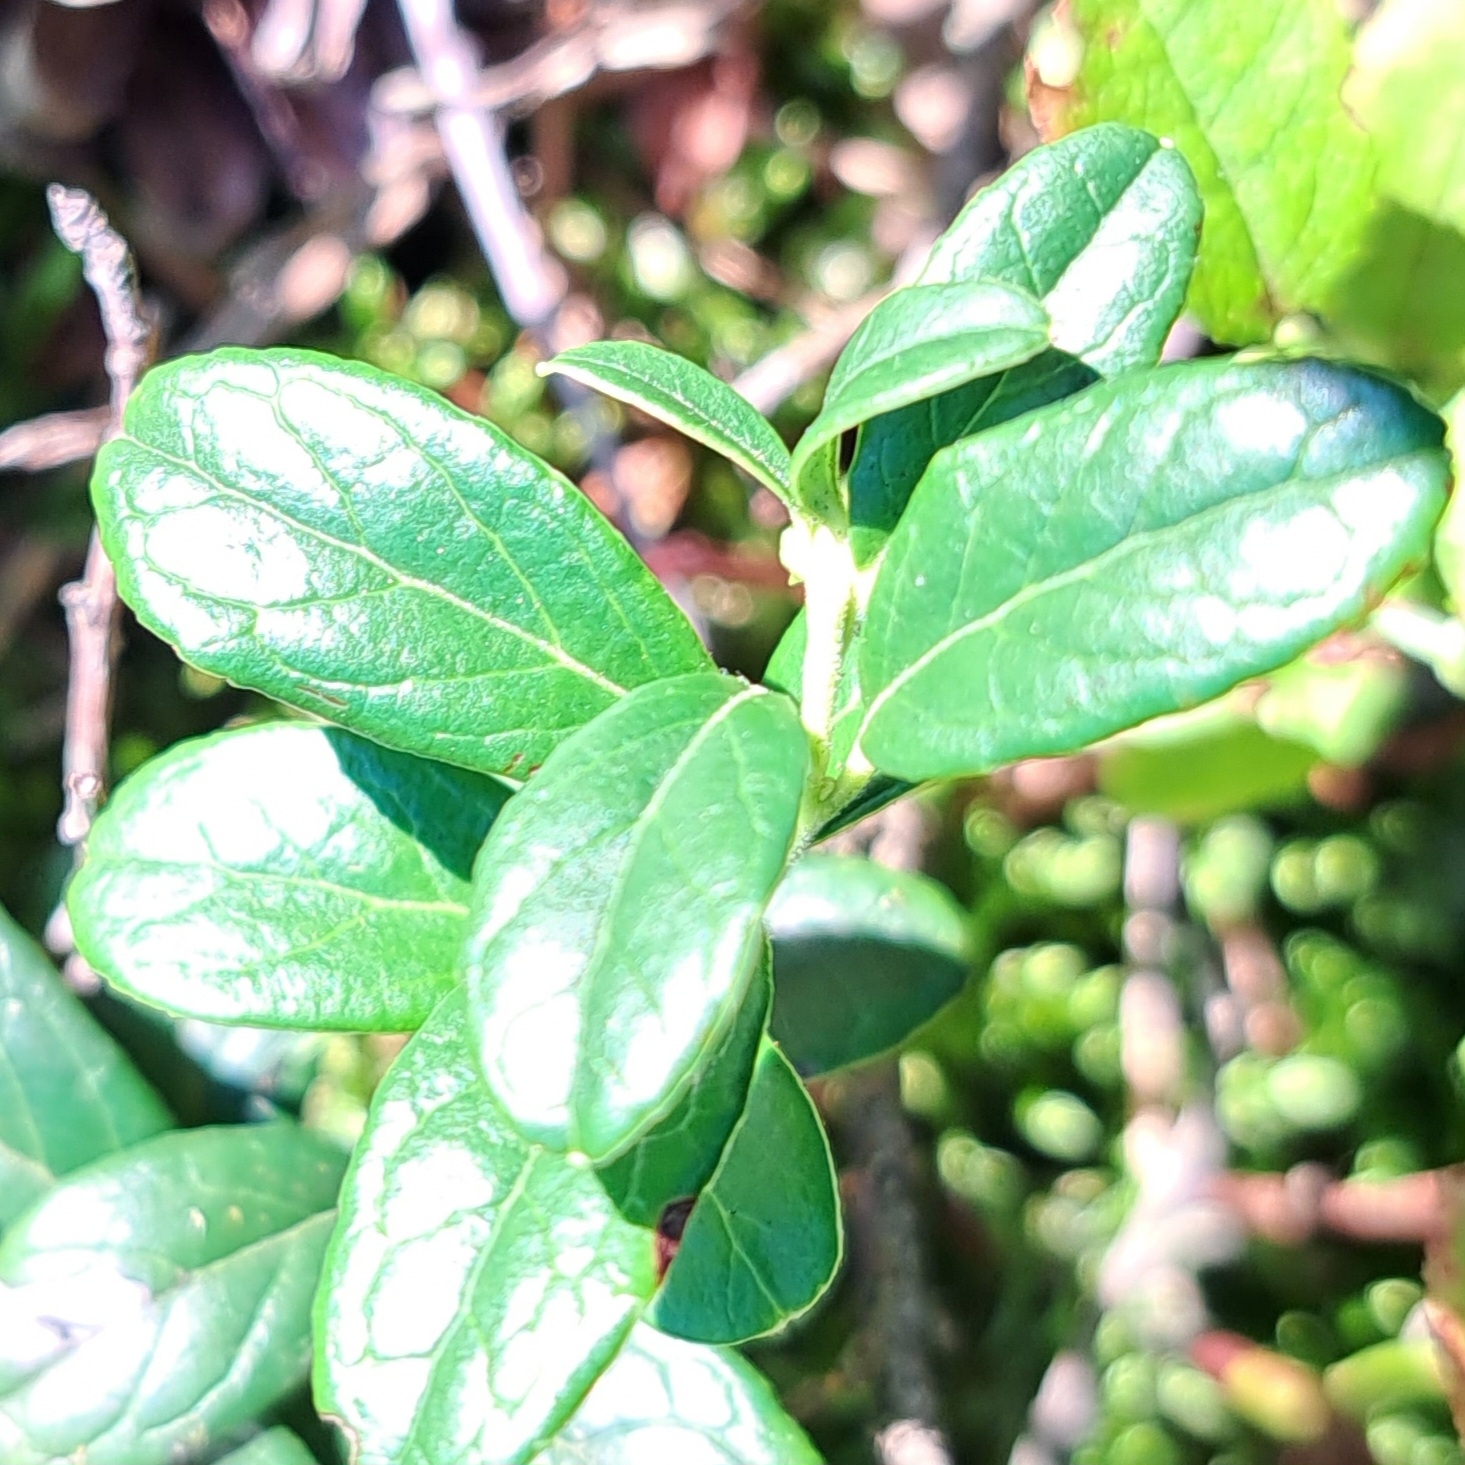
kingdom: Plantae
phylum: Tracheophyta
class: Magnoliopsida
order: Ericales
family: Ericaceae
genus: Vaccinium
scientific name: Vaccinium vitis-idaea
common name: Cowberry
